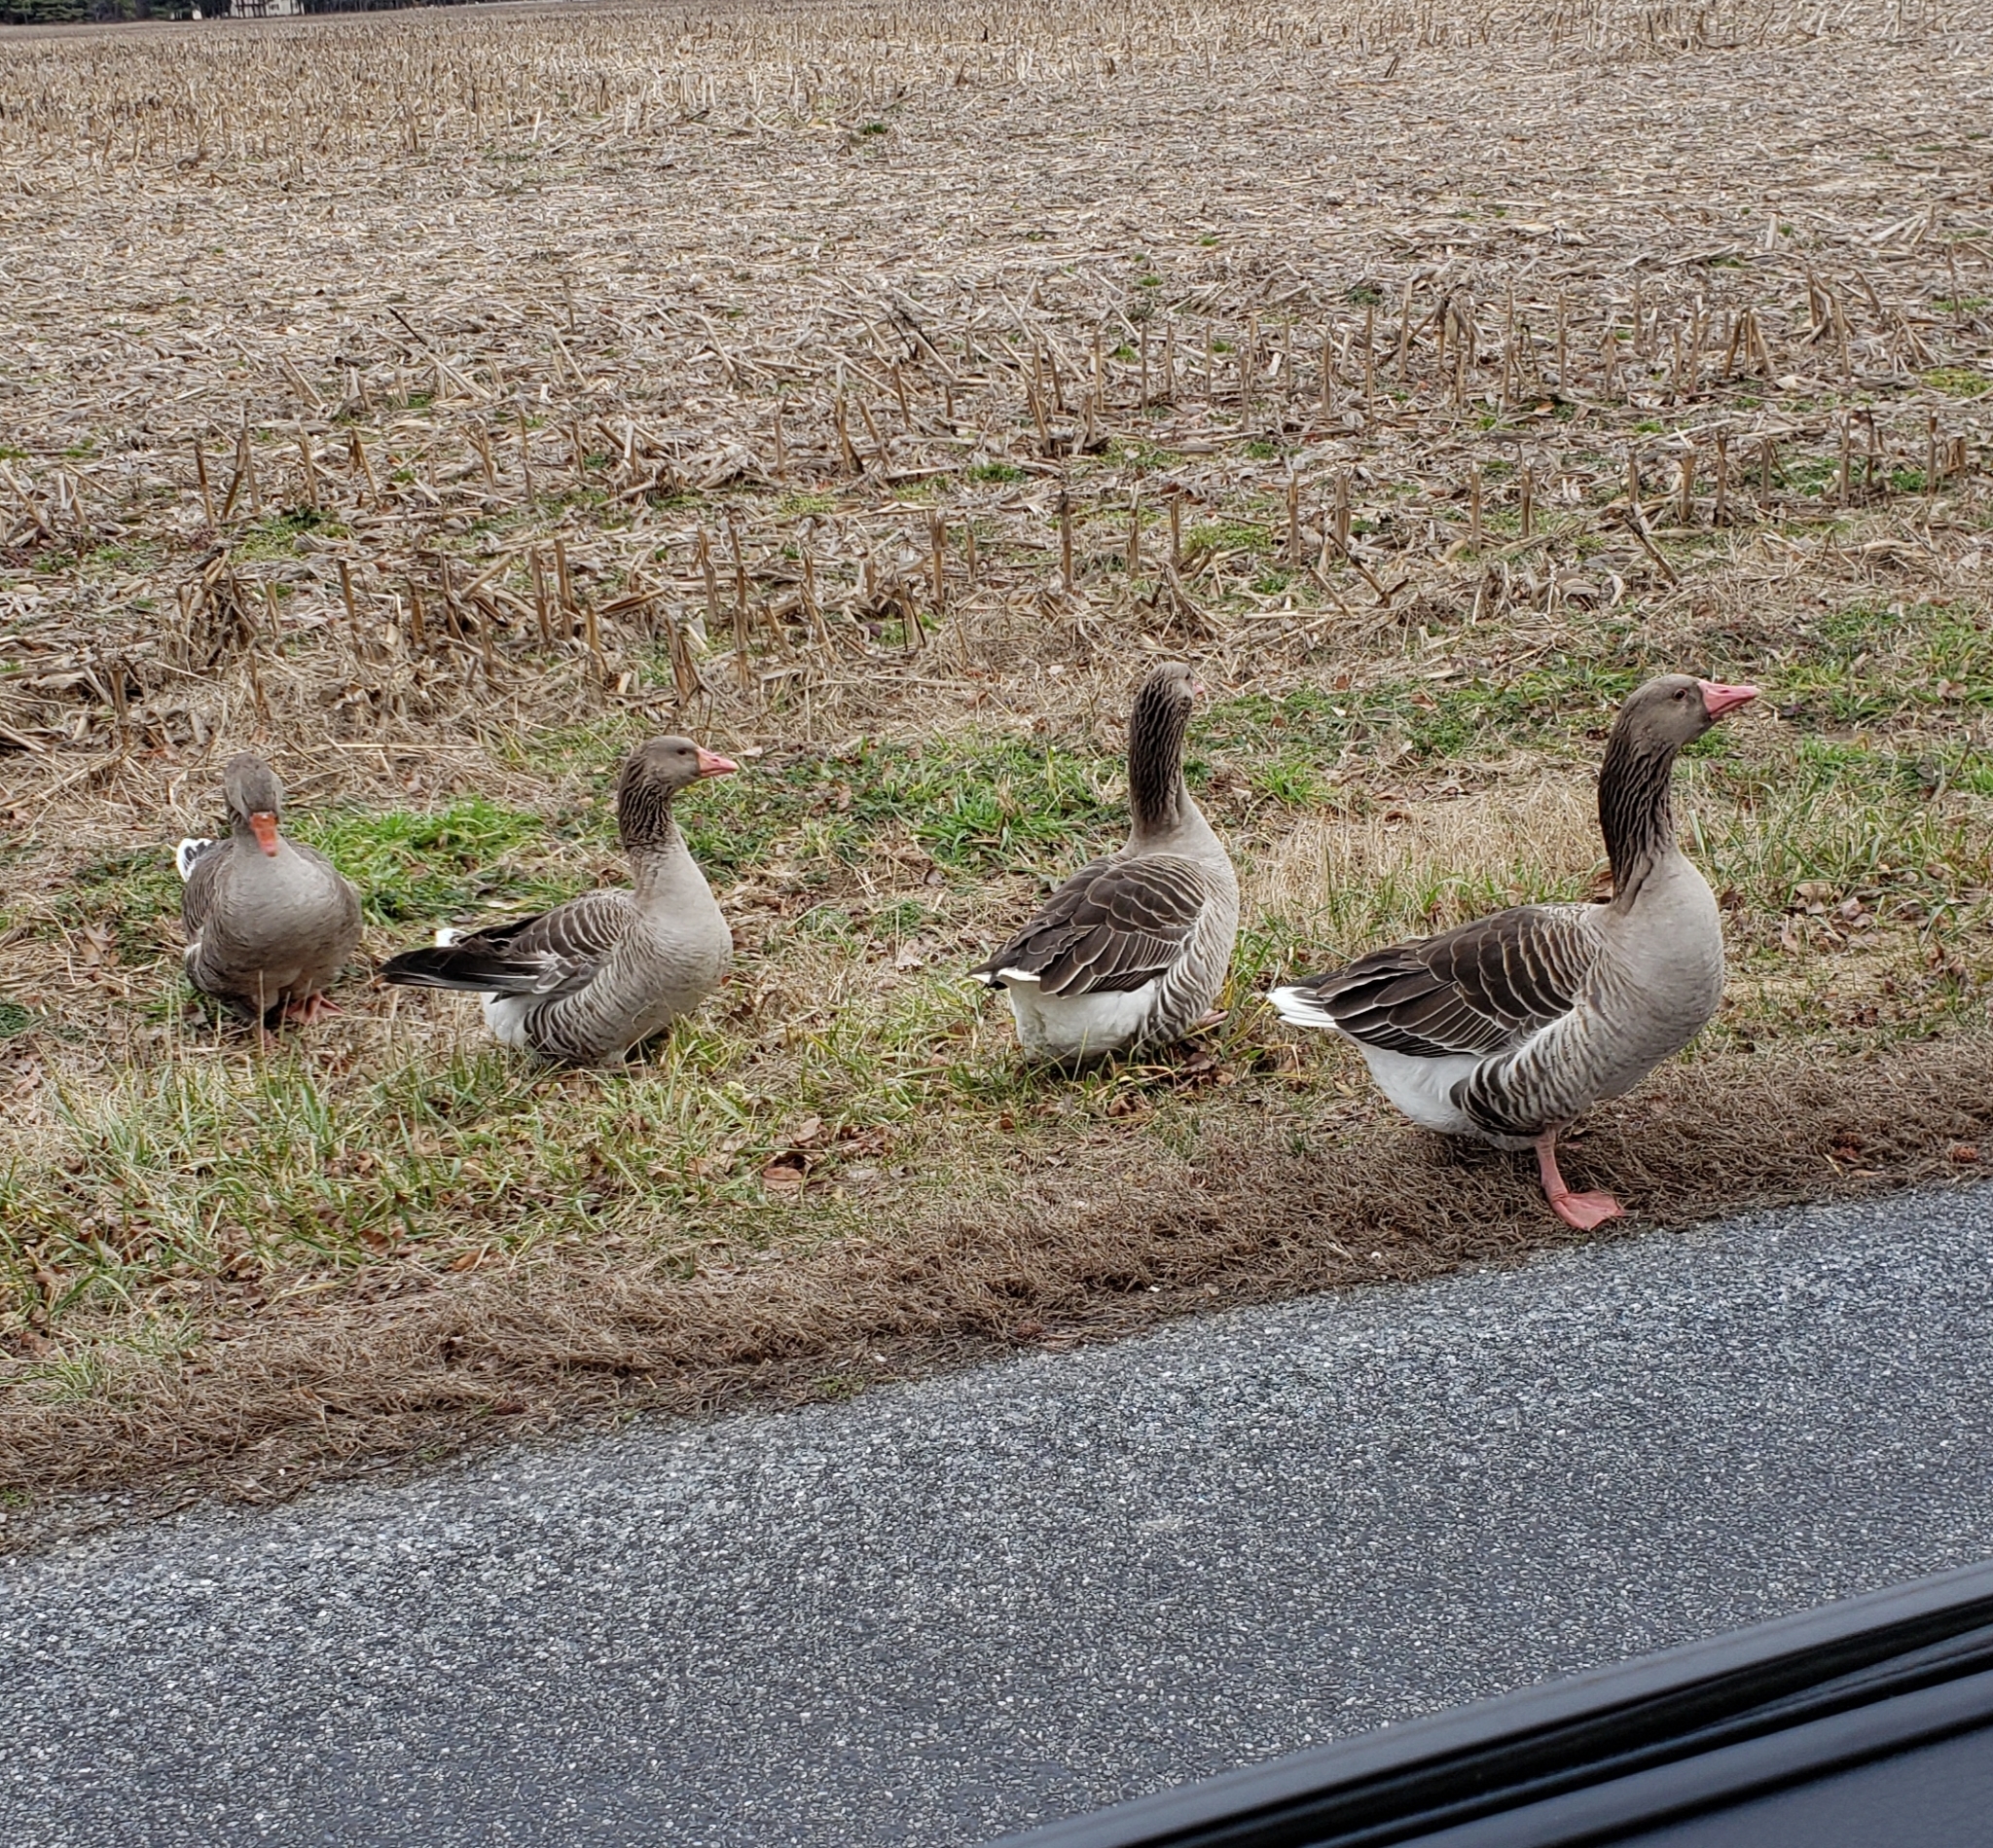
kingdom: Animalia
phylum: Chordata
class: Aves
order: Anseriformes
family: Anatidae
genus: Anser
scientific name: Anser anser
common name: Greylag goose
